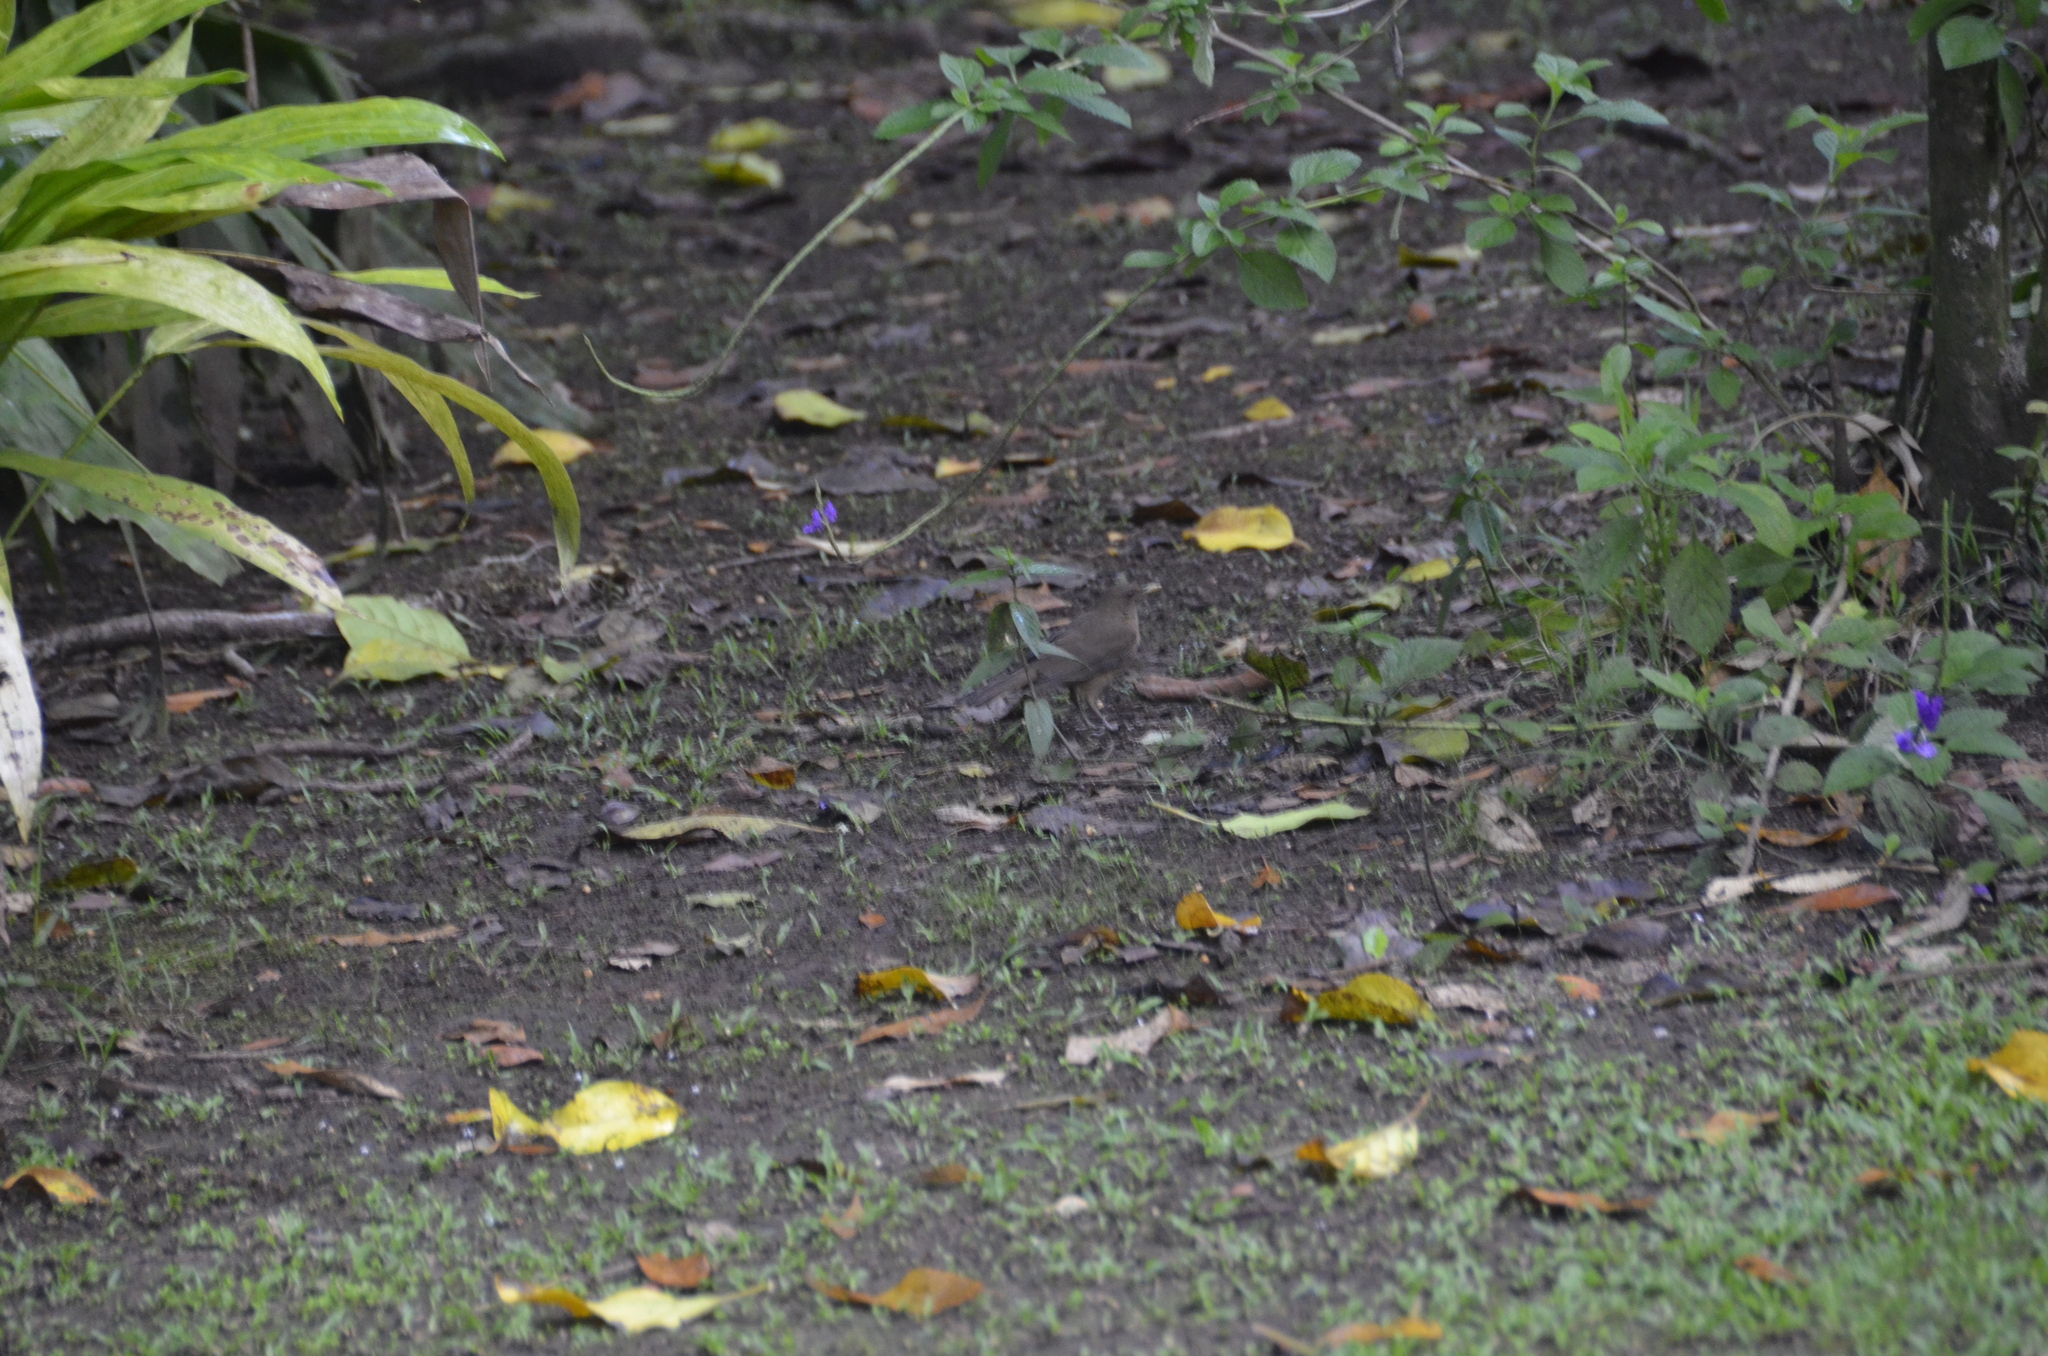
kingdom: Animalia
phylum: Chordata
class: Aves
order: Passeriformes
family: Turdidae
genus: Turdus
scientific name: Turdus grayi
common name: Clay-colored thrush
